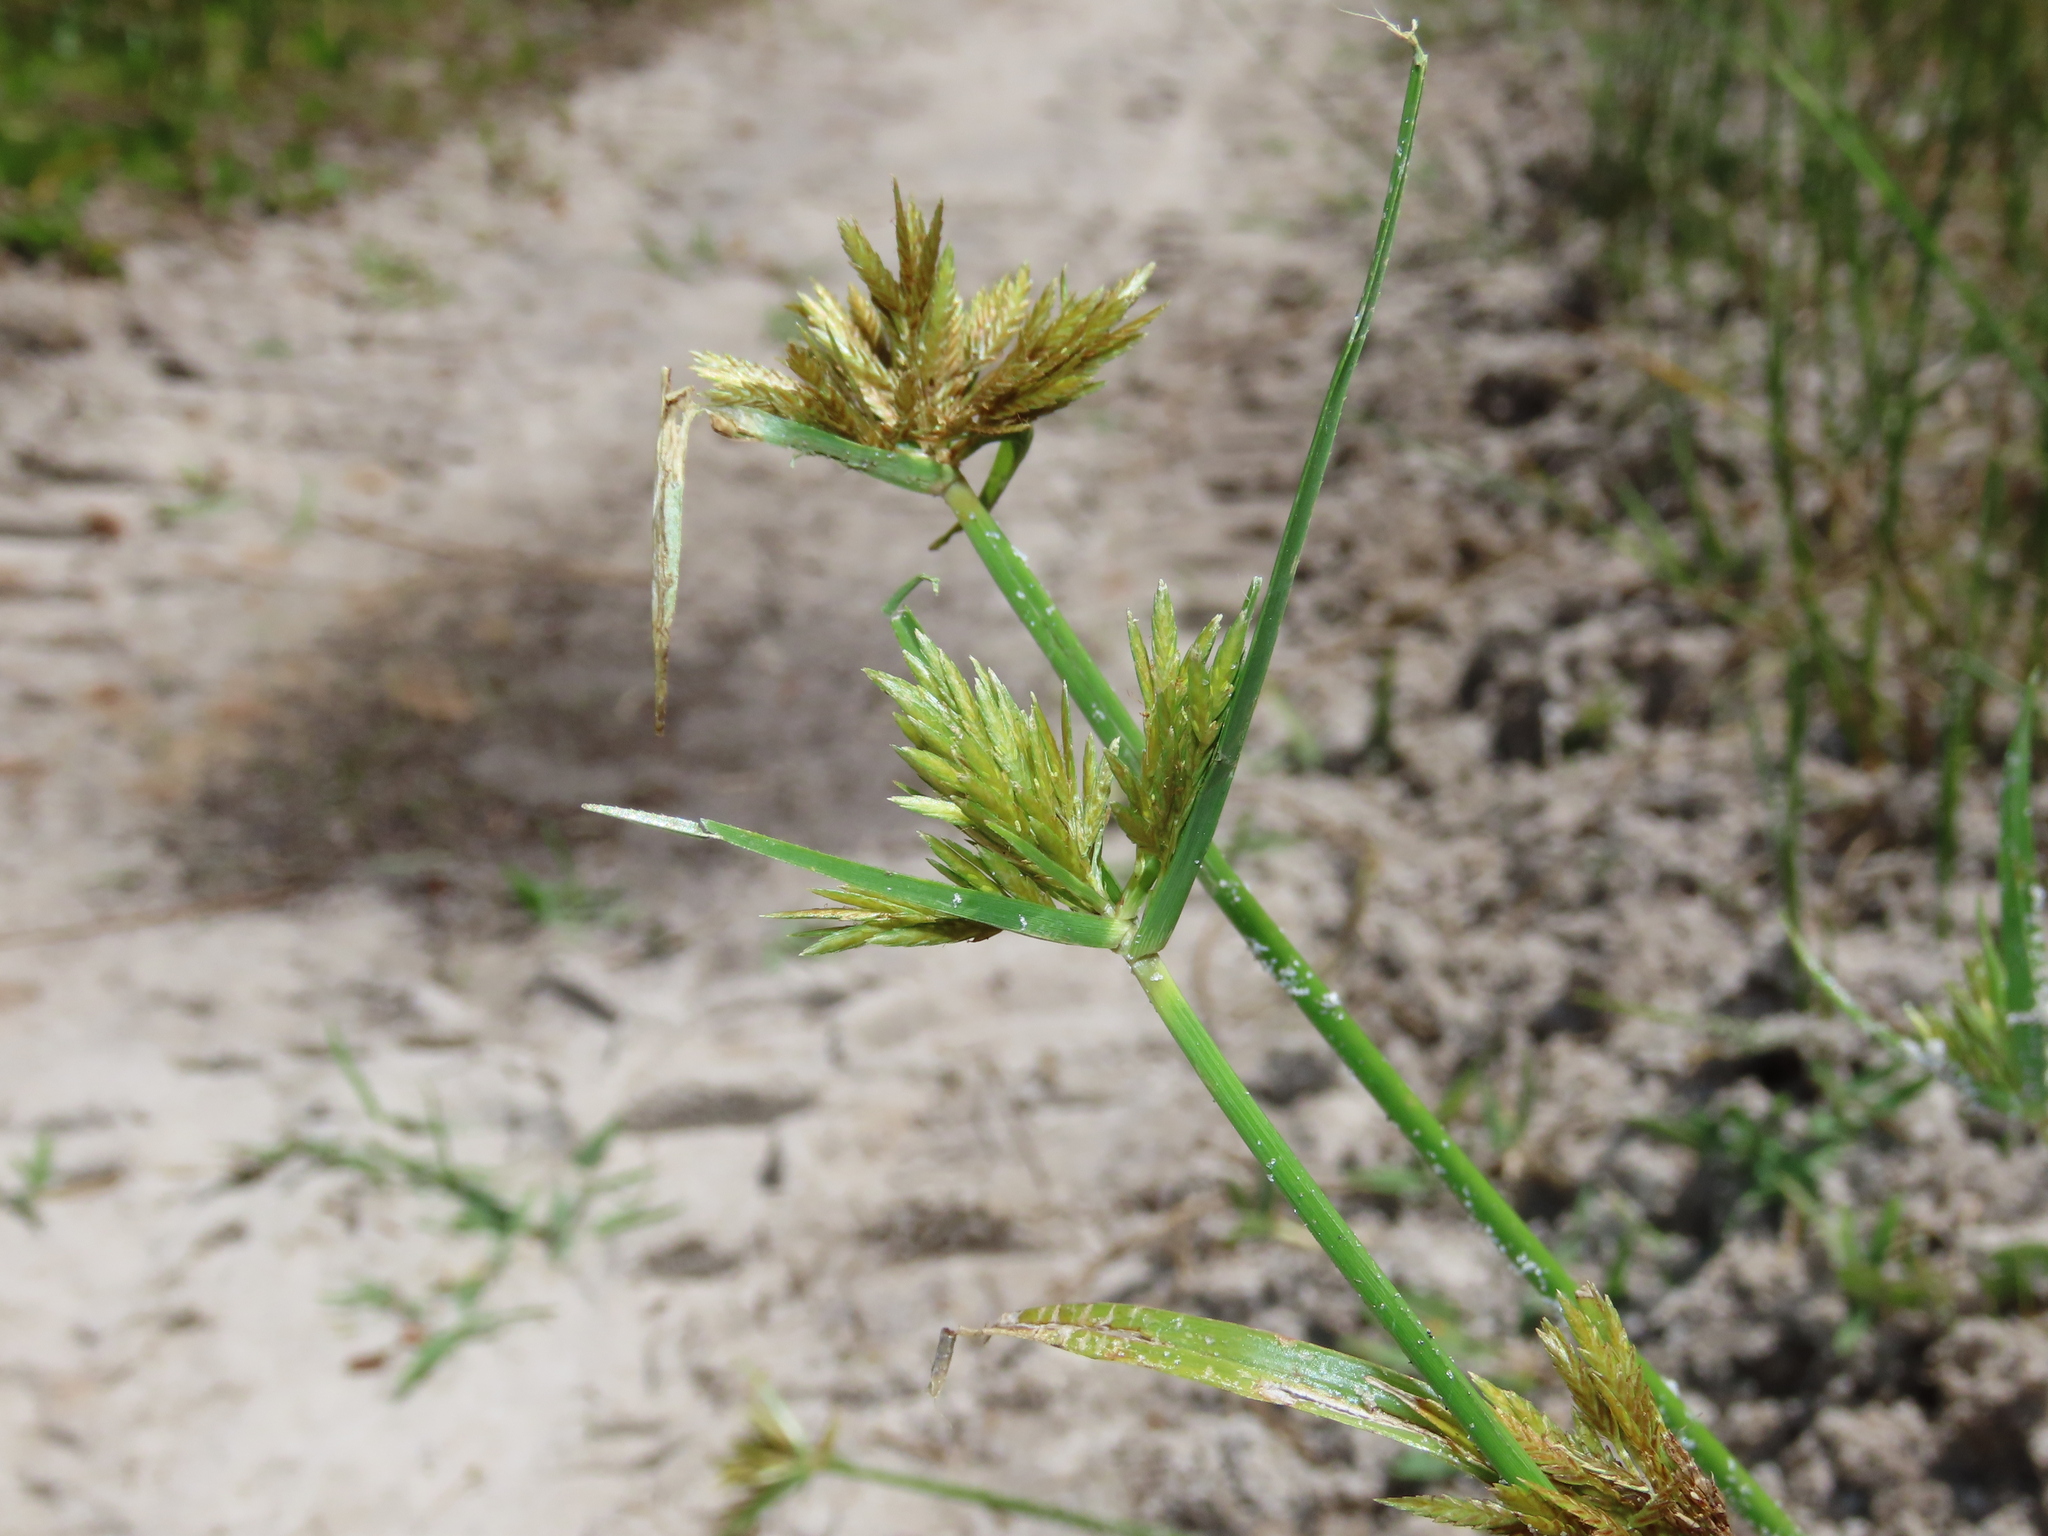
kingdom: Plantae
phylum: Tracheophyta
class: Liliopsida
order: Poales
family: Cyperaceae
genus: Cyperus
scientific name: Cyperus polystachyos
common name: Bunchy flat sedge
